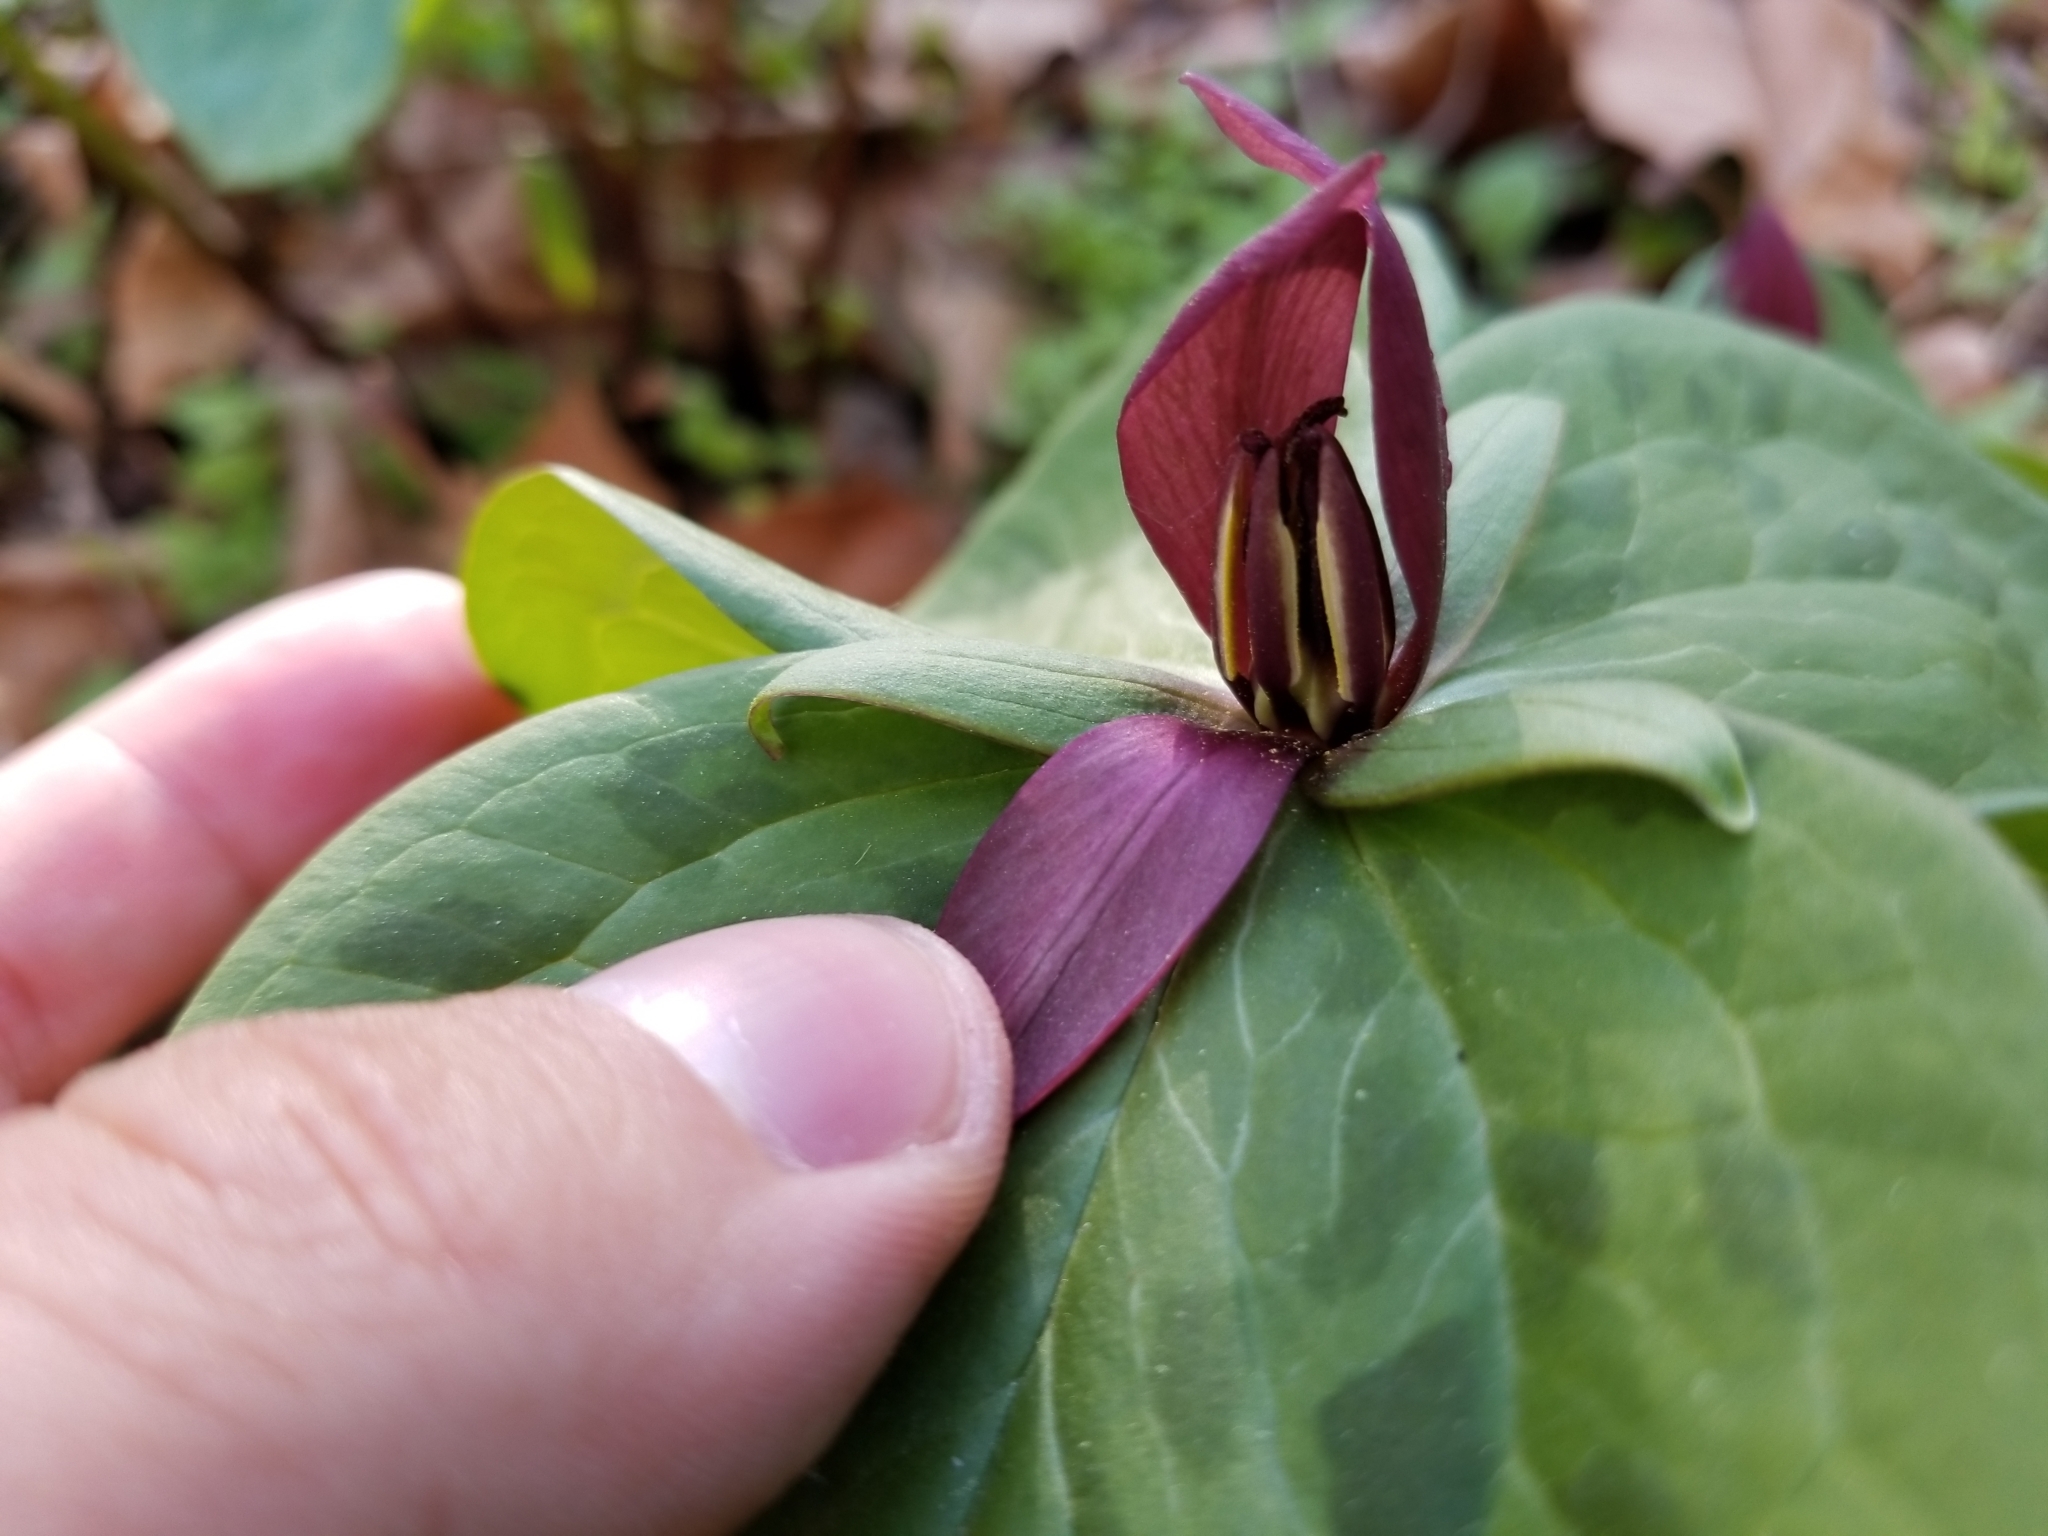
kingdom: Plantae
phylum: Tracheophyta
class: Liliopsida
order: Liliales
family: Melanthiaceae
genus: Trillium
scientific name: Trillium sessile
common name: Sessile trillium
